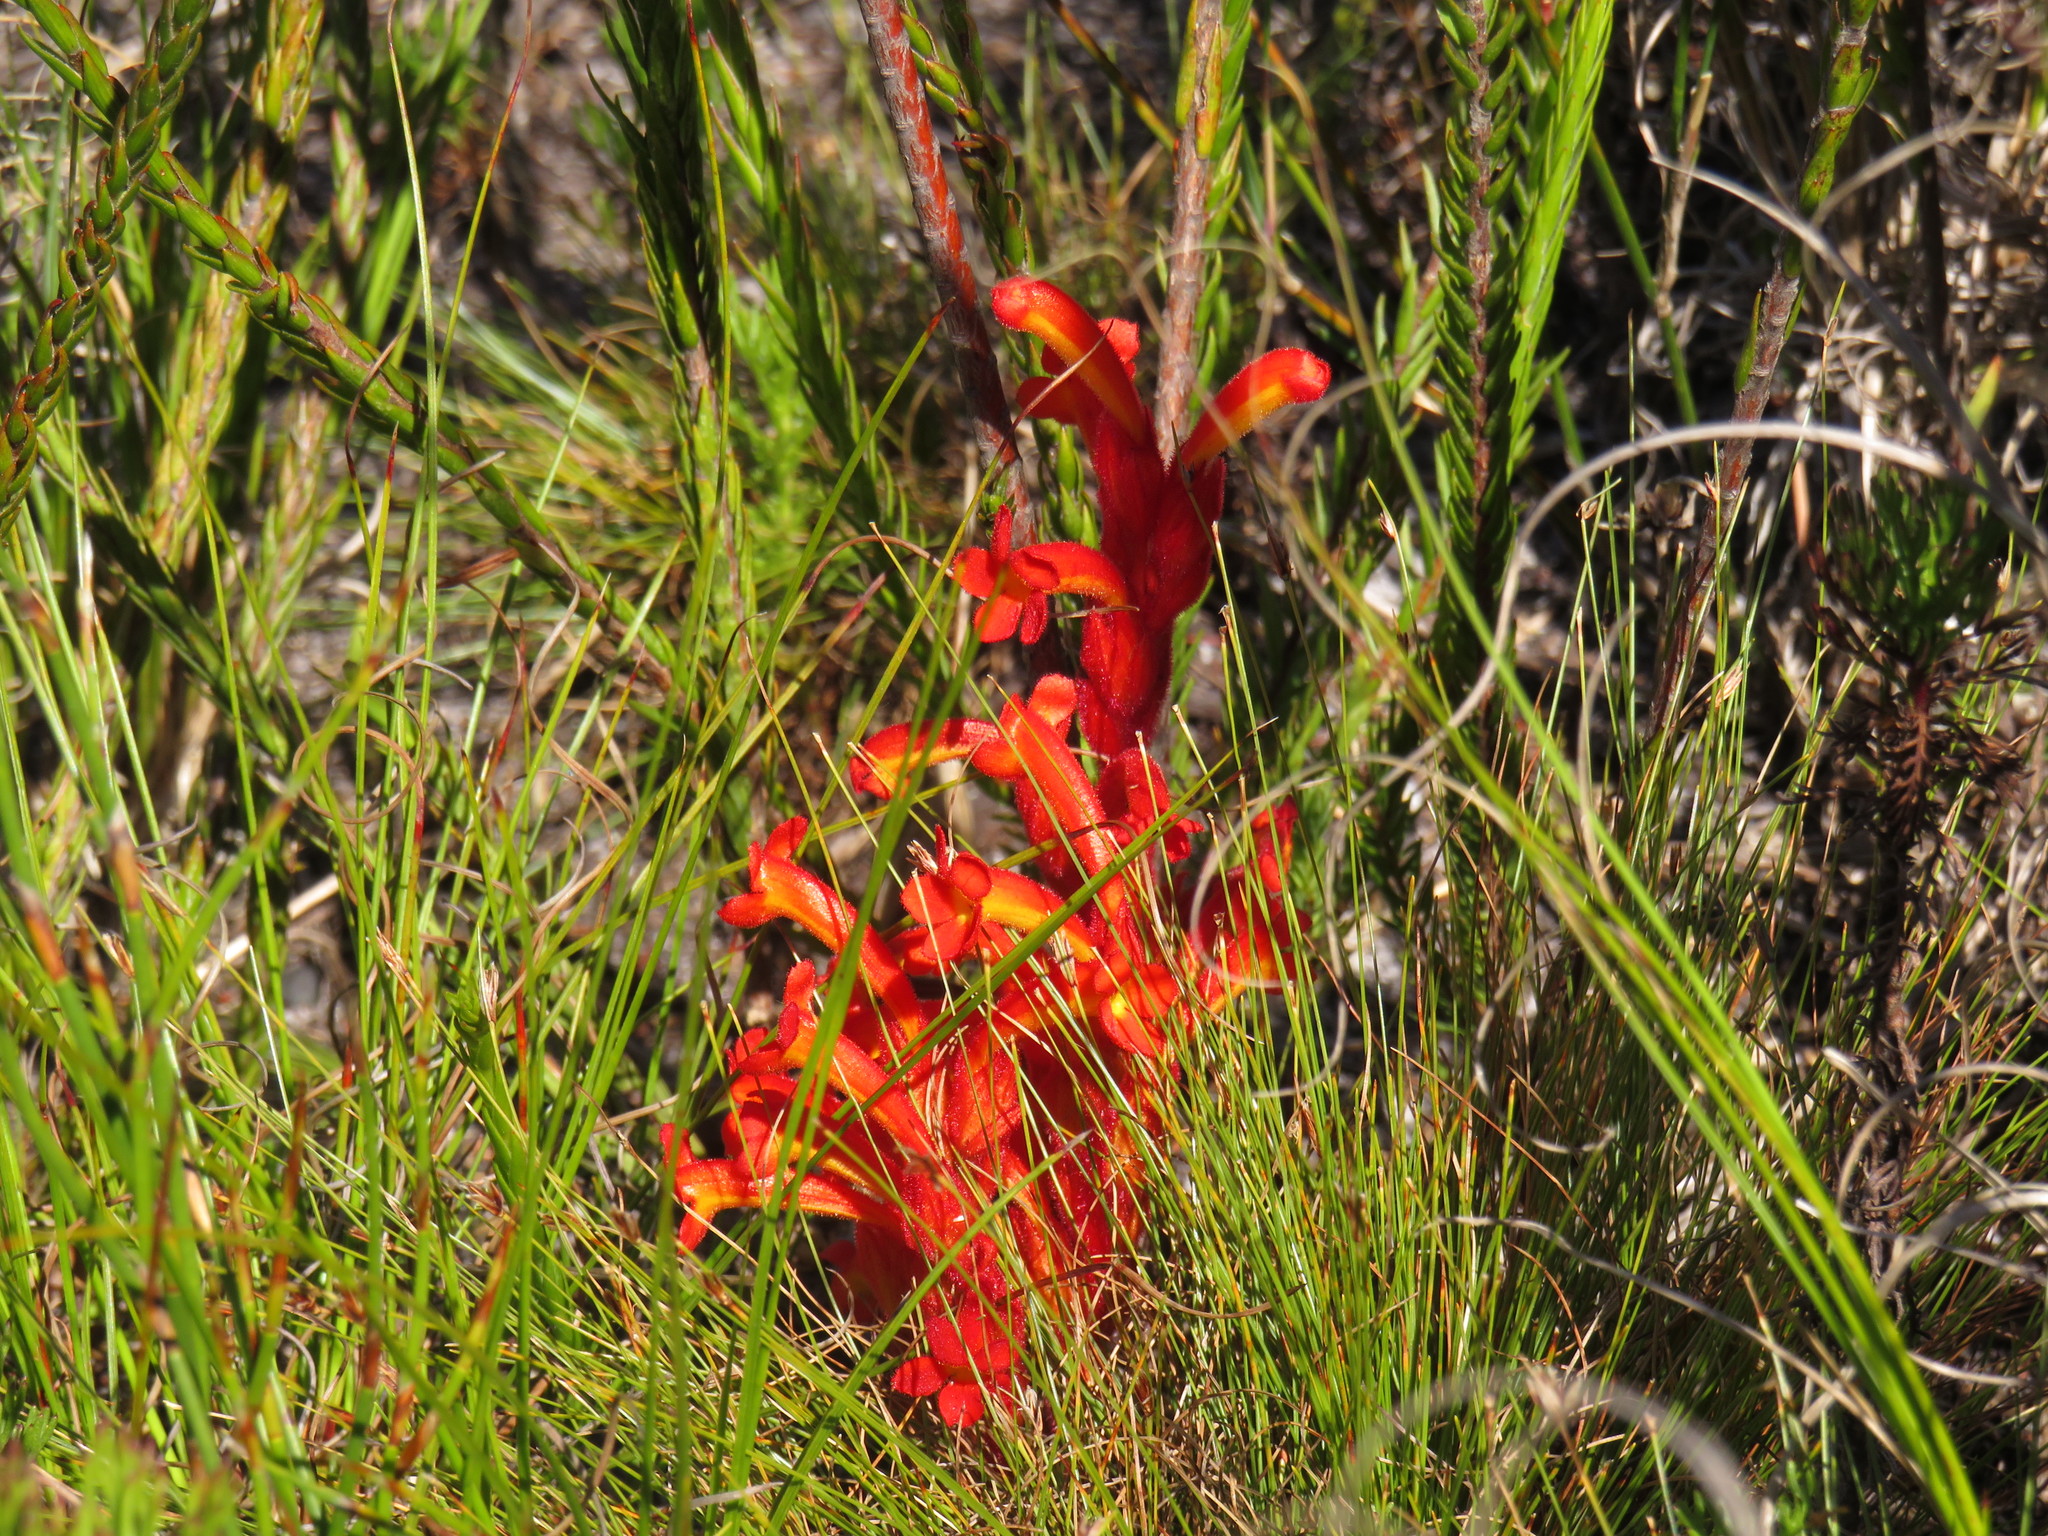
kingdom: Plantae
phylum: Tracheophyta
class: Magnoliopsida
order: Lamiales
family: Orobanchaceae
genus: Harveya
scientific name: Harveya bolusii
